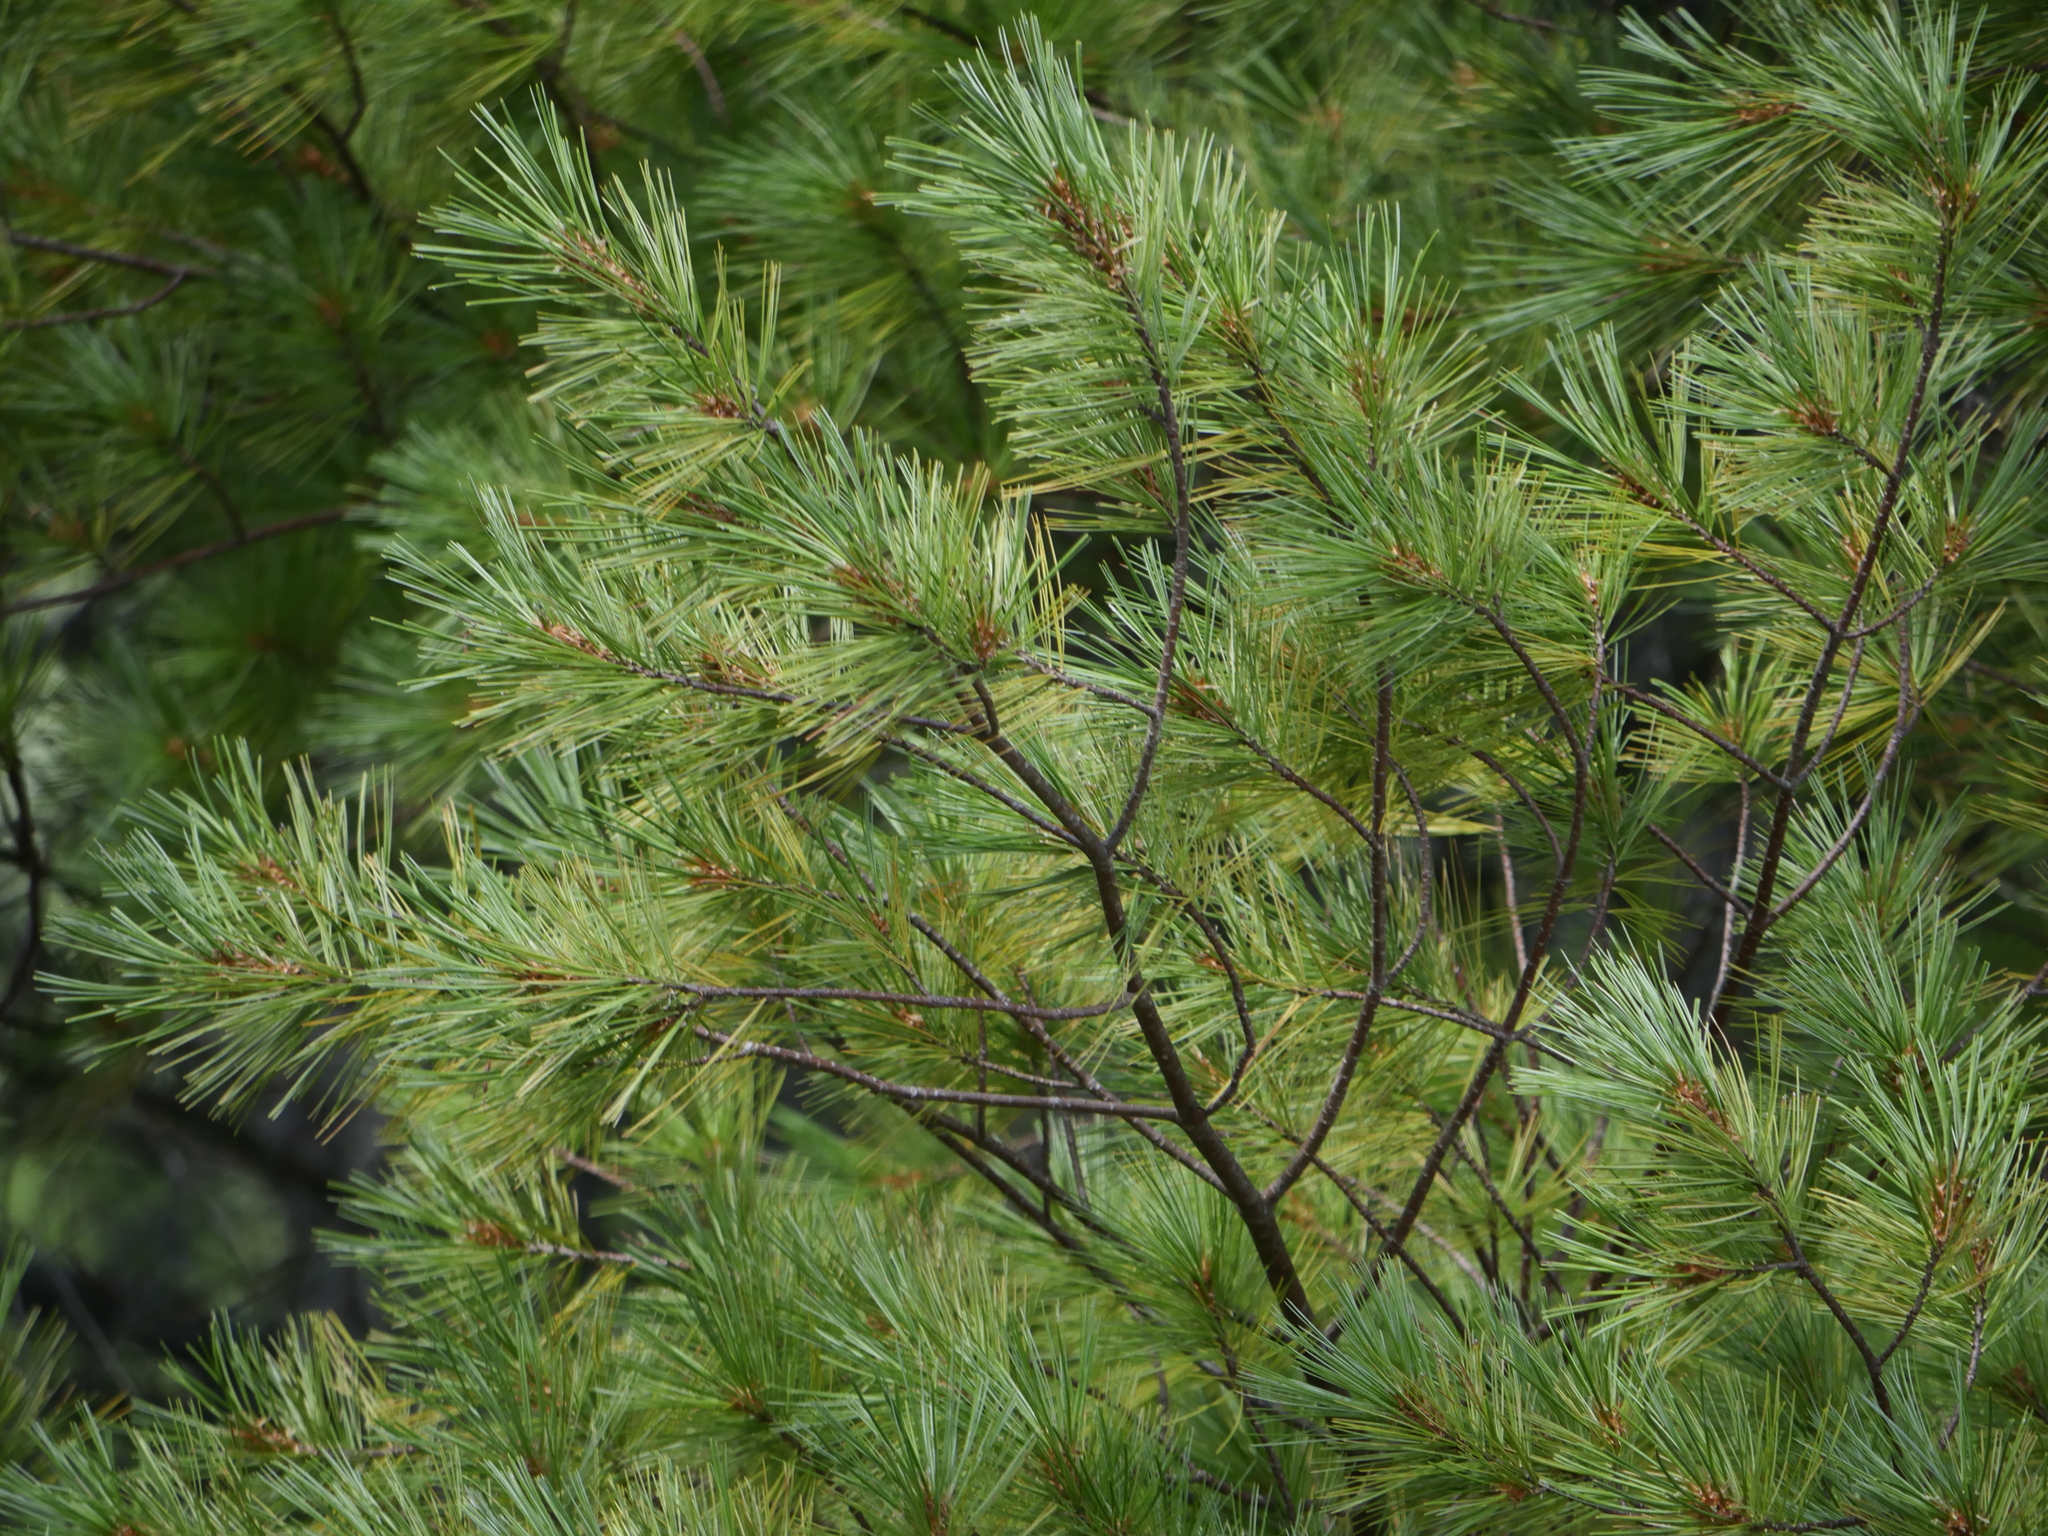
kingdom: Plantae
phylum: Tracheophyta
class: Pinopsida
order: Pinales
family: Pinaceae
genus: Pinus
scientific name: Pinus strobus
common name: Weymouth pine
